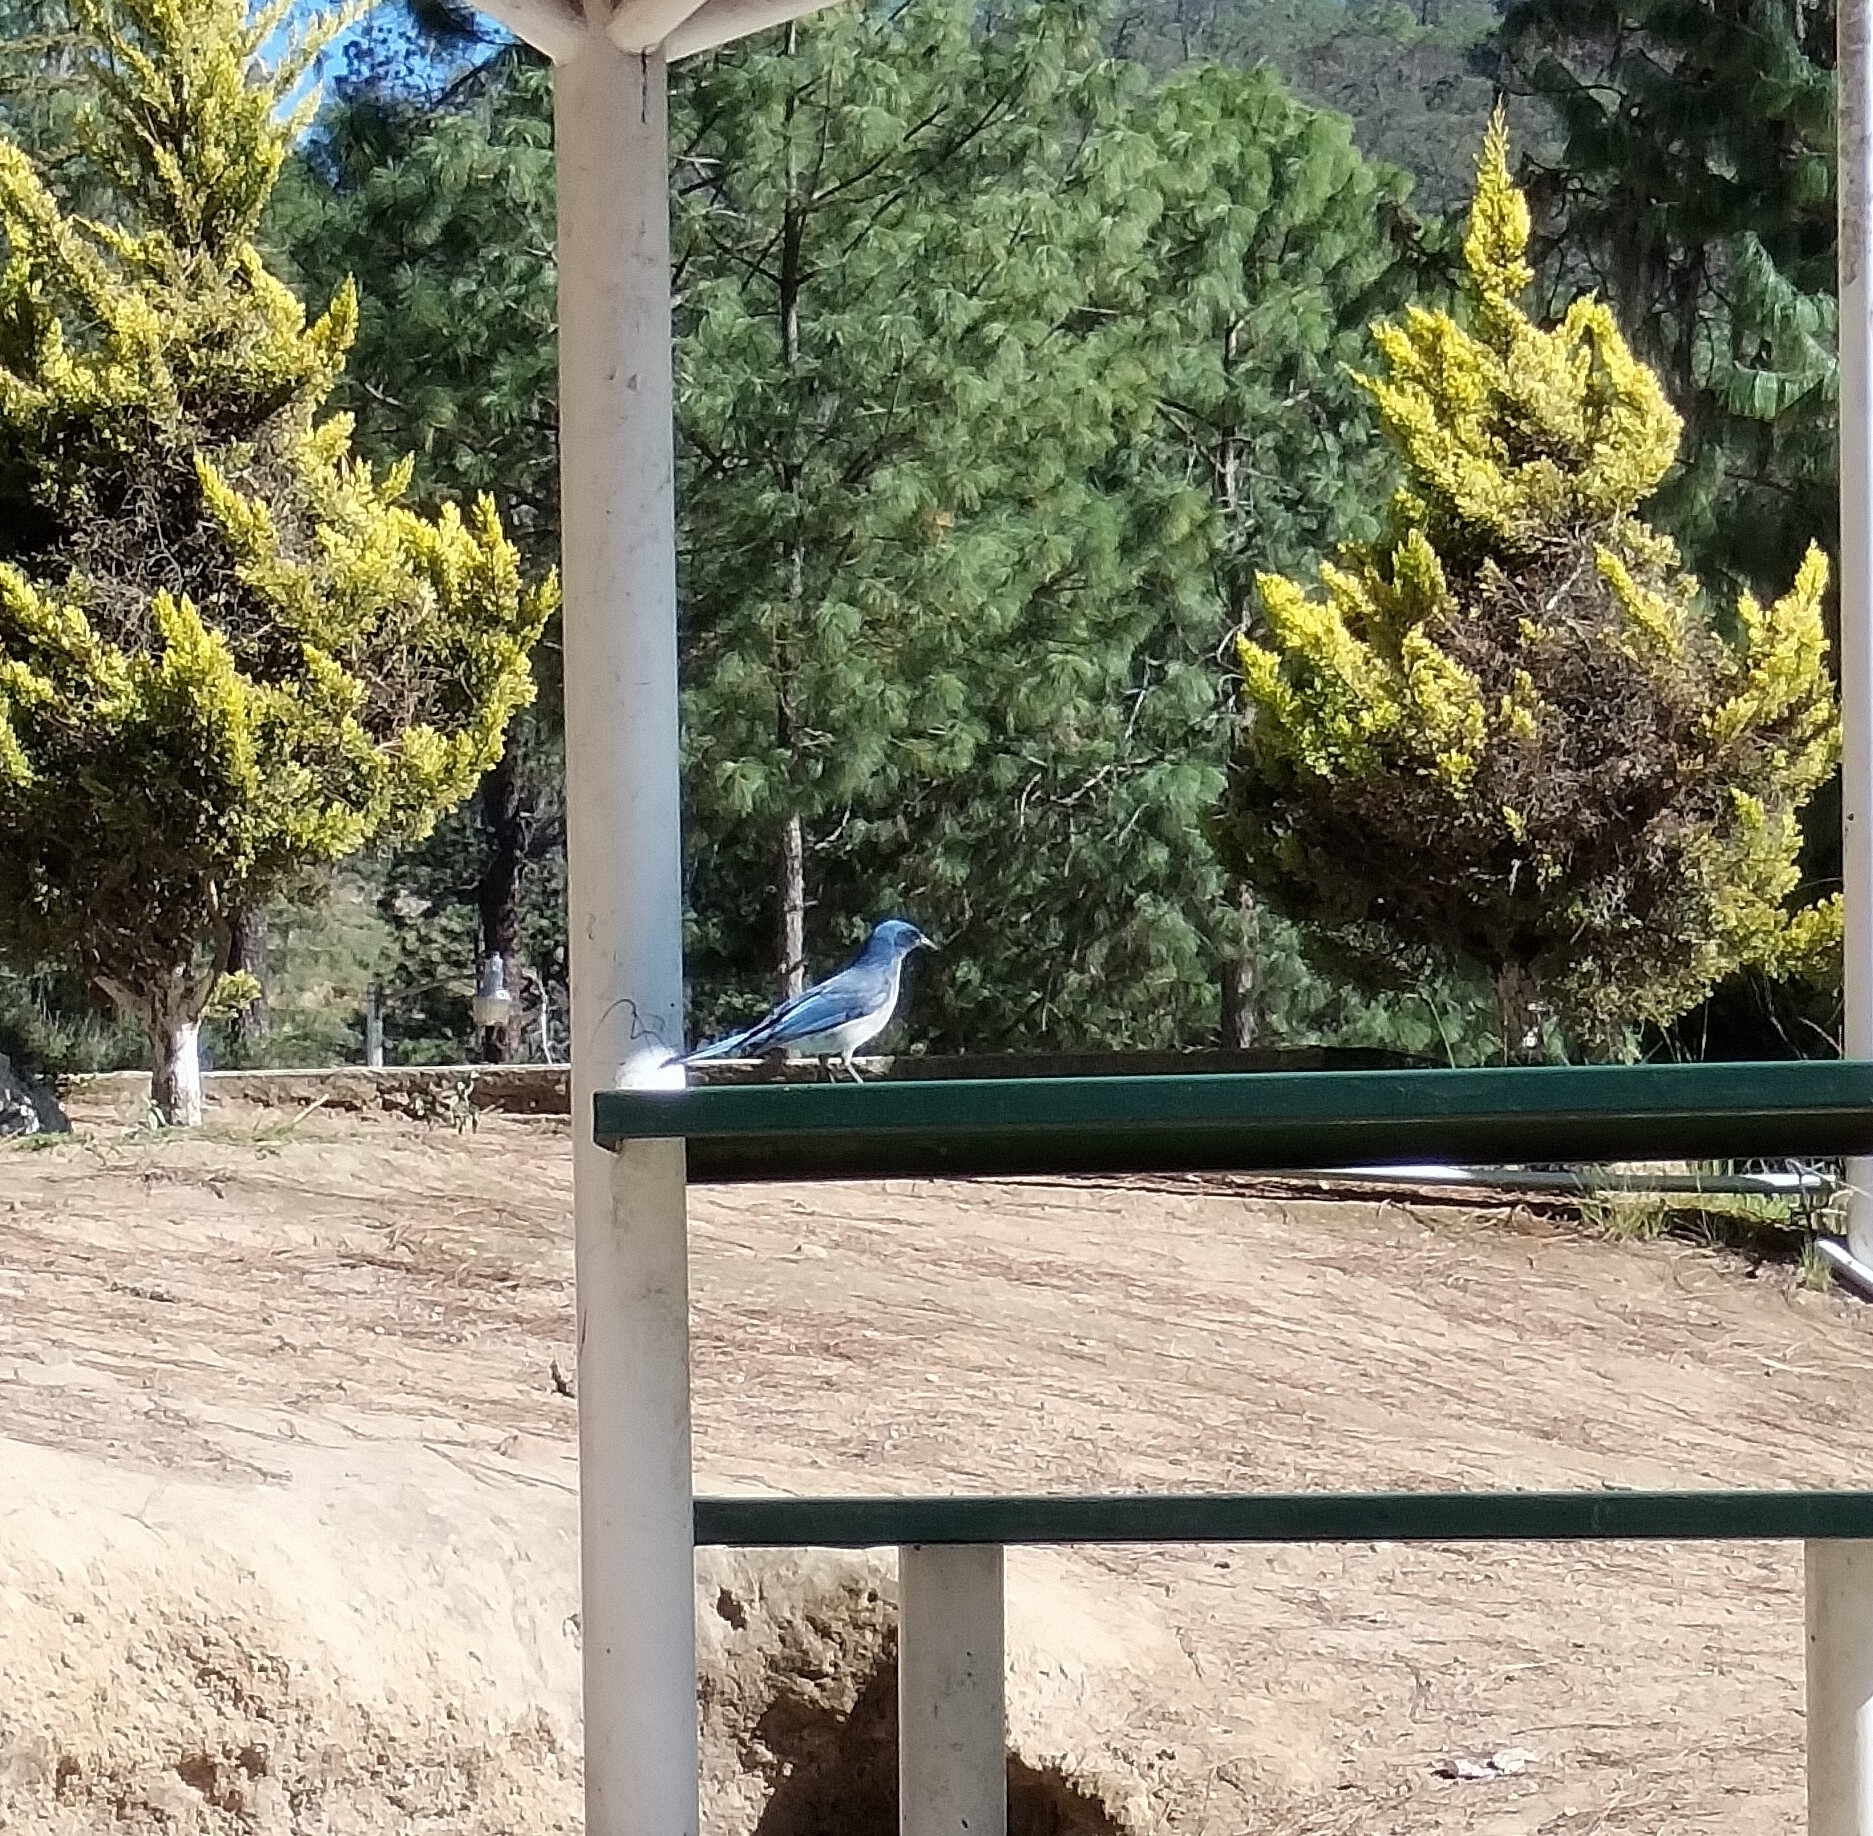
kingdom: Animalia
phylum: Chordata
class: Aves
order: Passeriformes
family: Corvidae
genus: Aphelocoma
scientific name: Aphelocoma woodhouseii
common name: Woodhouse's scrub-jay
